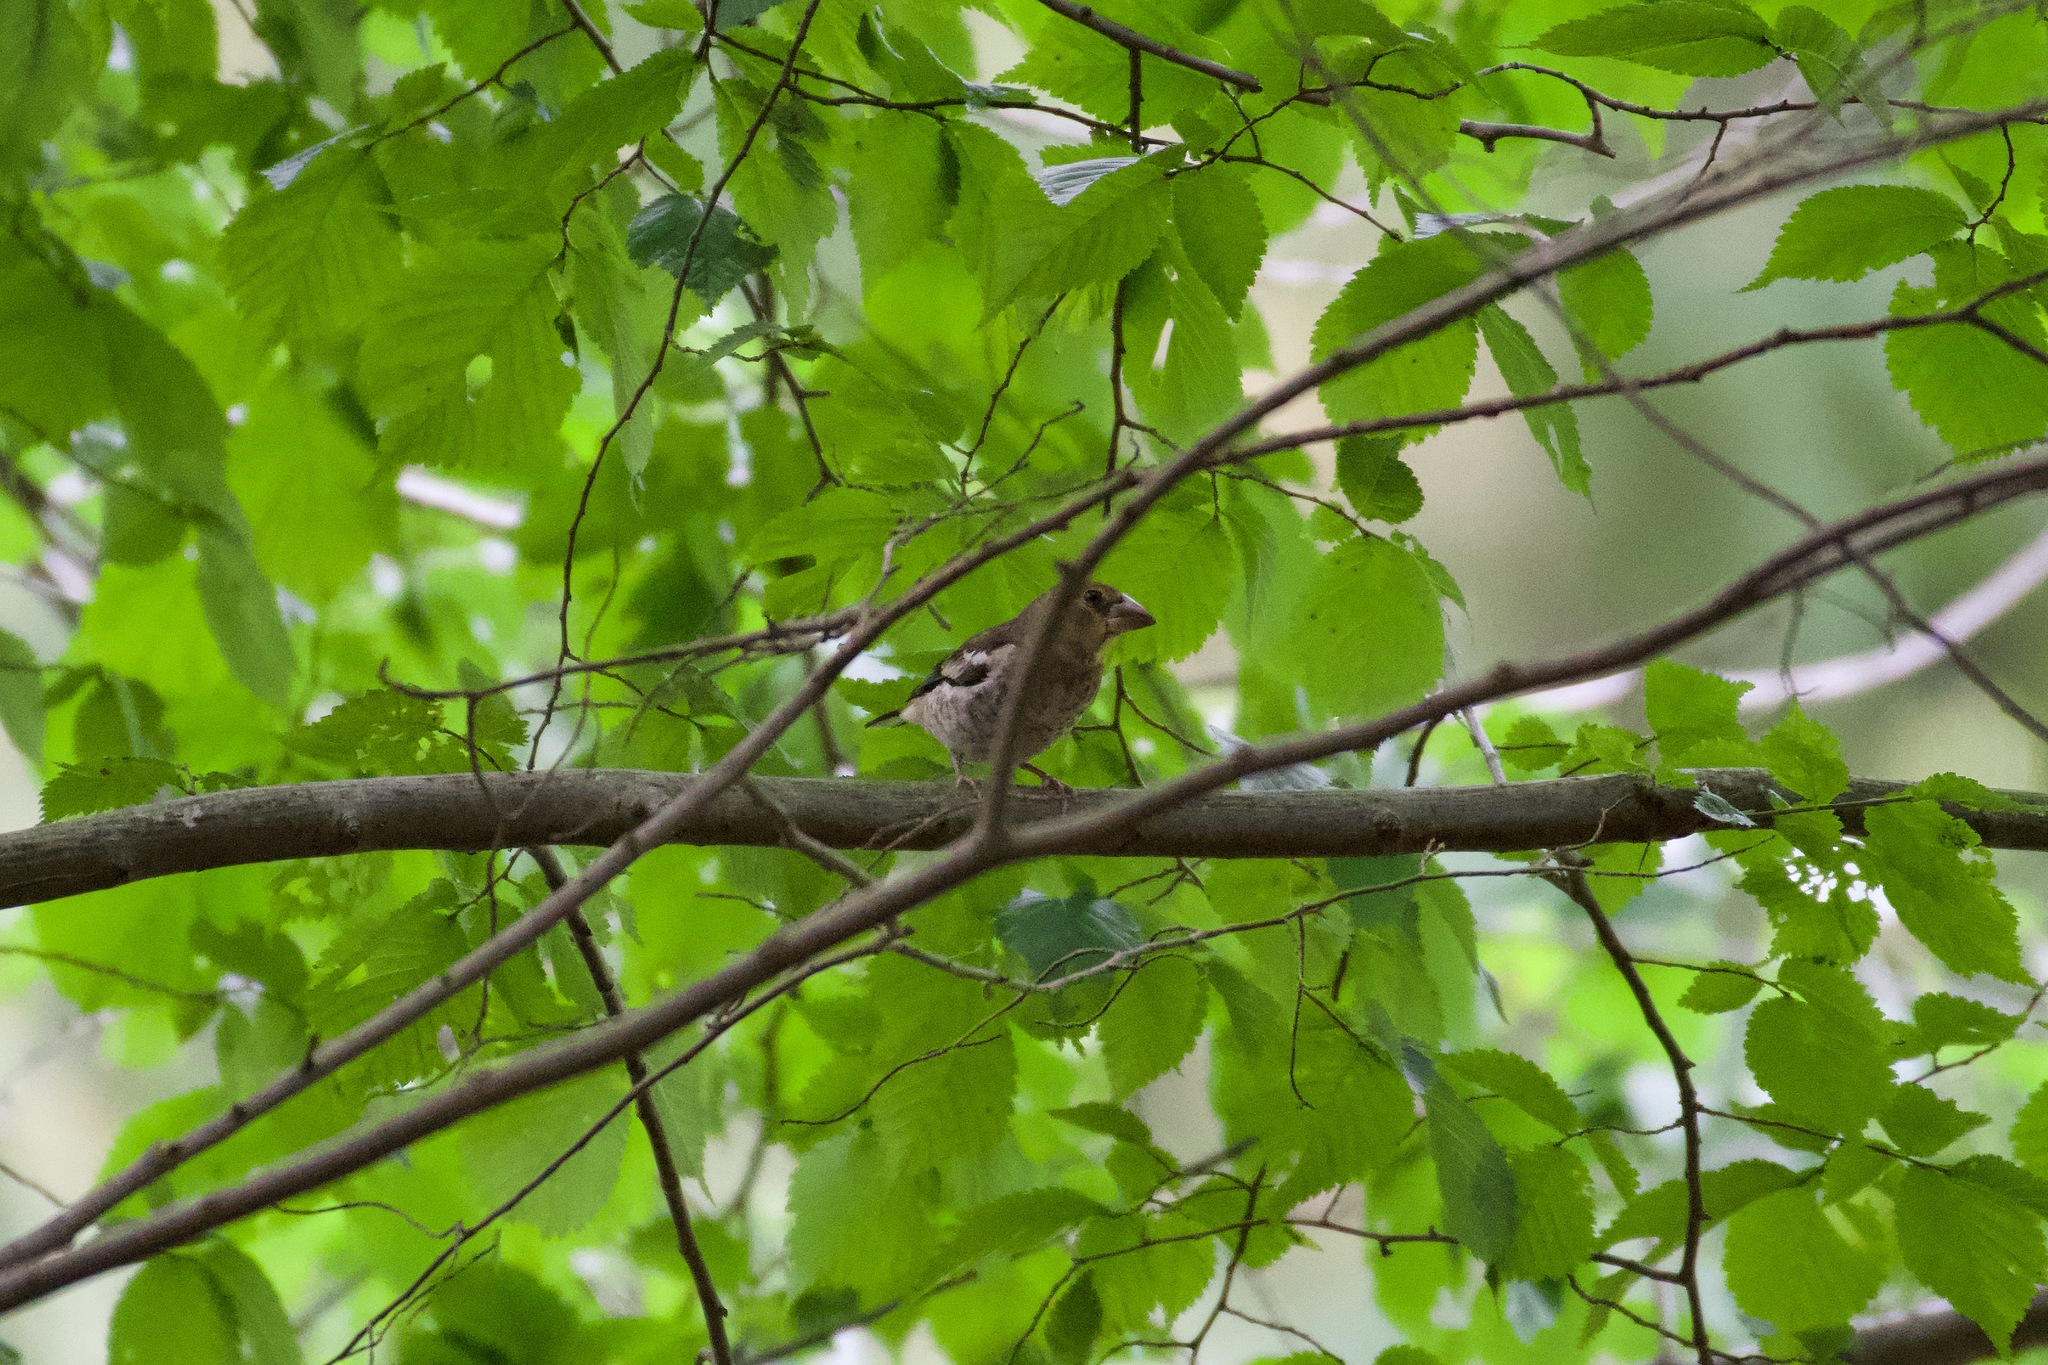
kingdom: Animalia
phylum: Chordata
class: Aves
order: Passeriformes
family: Fringillidae
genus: Coccothraustes
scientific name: Coccothraustes coccothraustes
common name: Hawfinch
